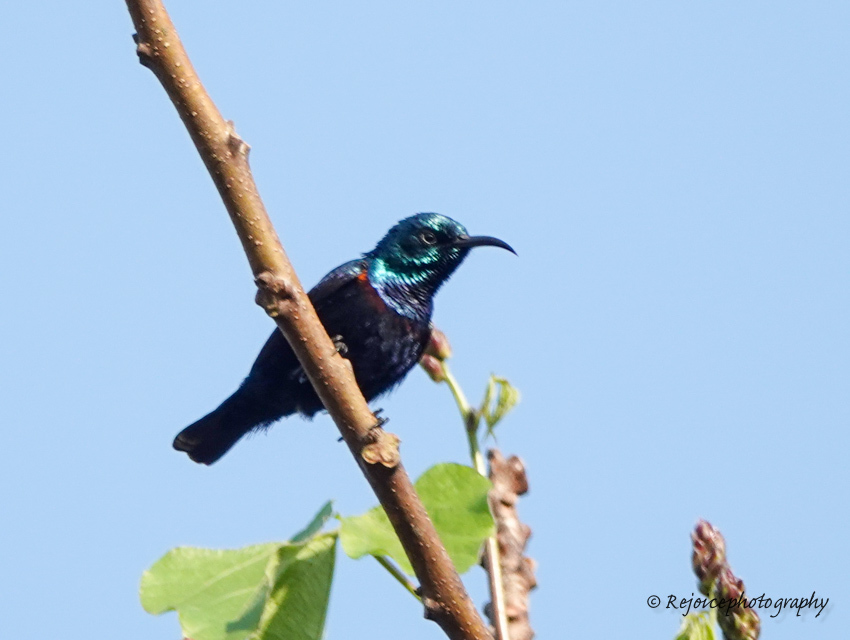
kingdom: Animalia
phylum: Chordata
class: Aves
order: Passeriformes
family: Nectariniidae
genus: Cinnyris
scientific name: Cinnyris asiaticus
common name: Purple sunbird
